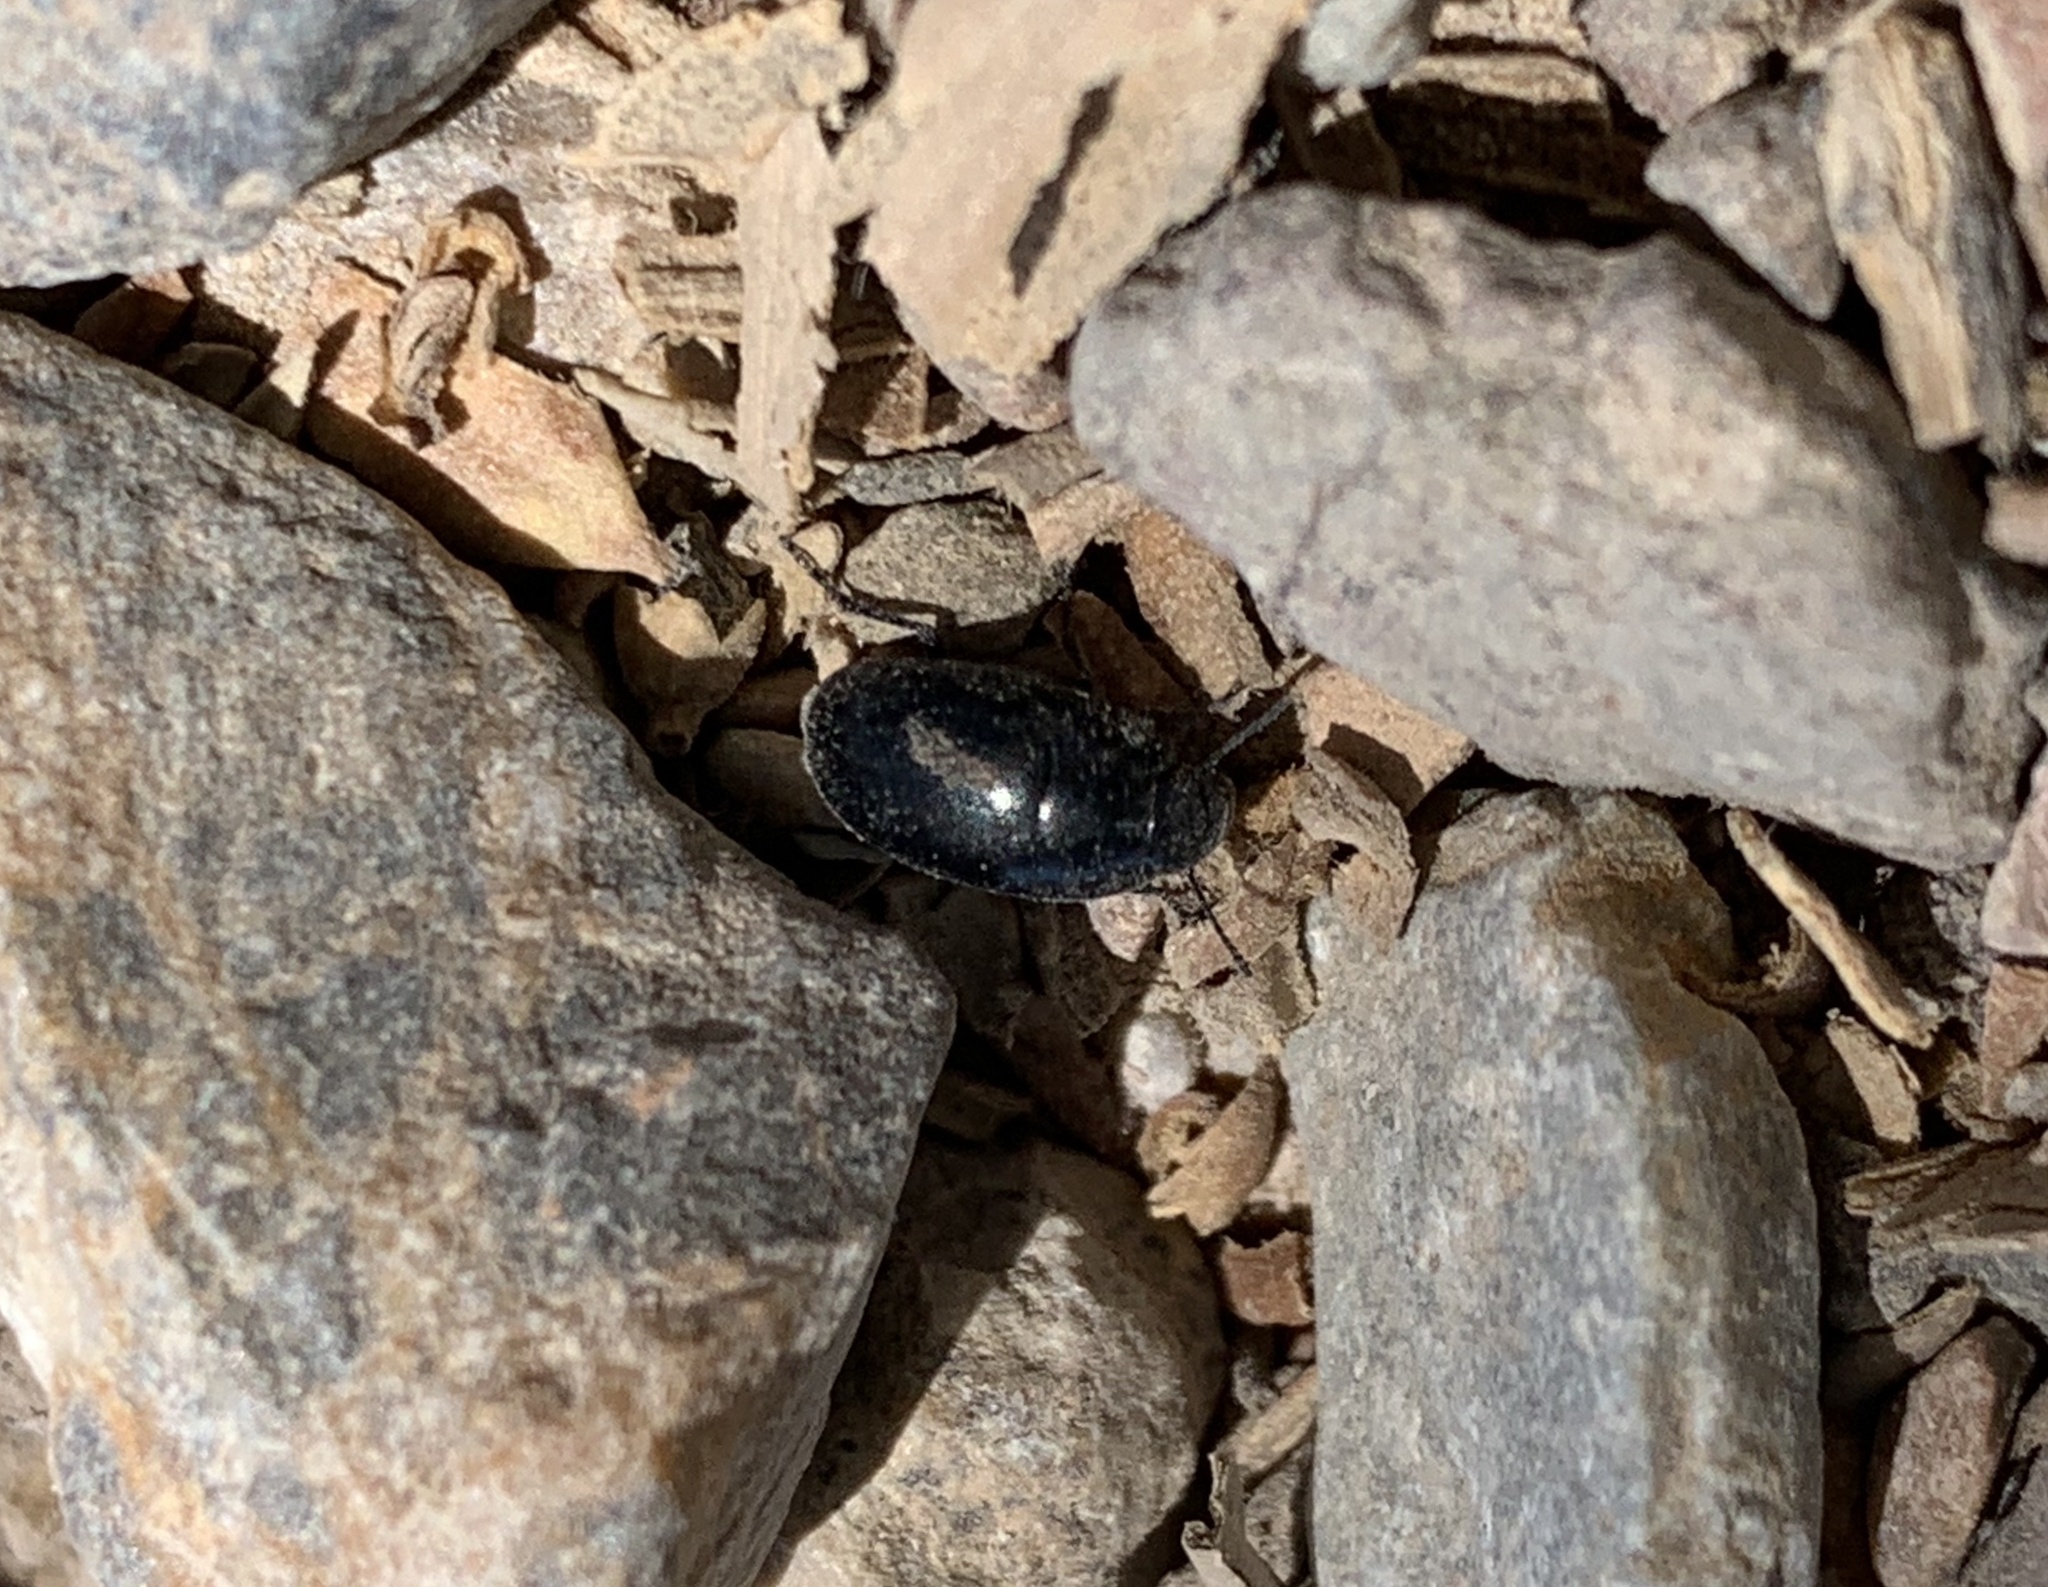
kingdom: Animalia
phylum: Arthropoda
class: Insecta
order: Coleoptera
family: Tenebrionidae
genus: Zophosis
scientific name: Zophosis punctata
